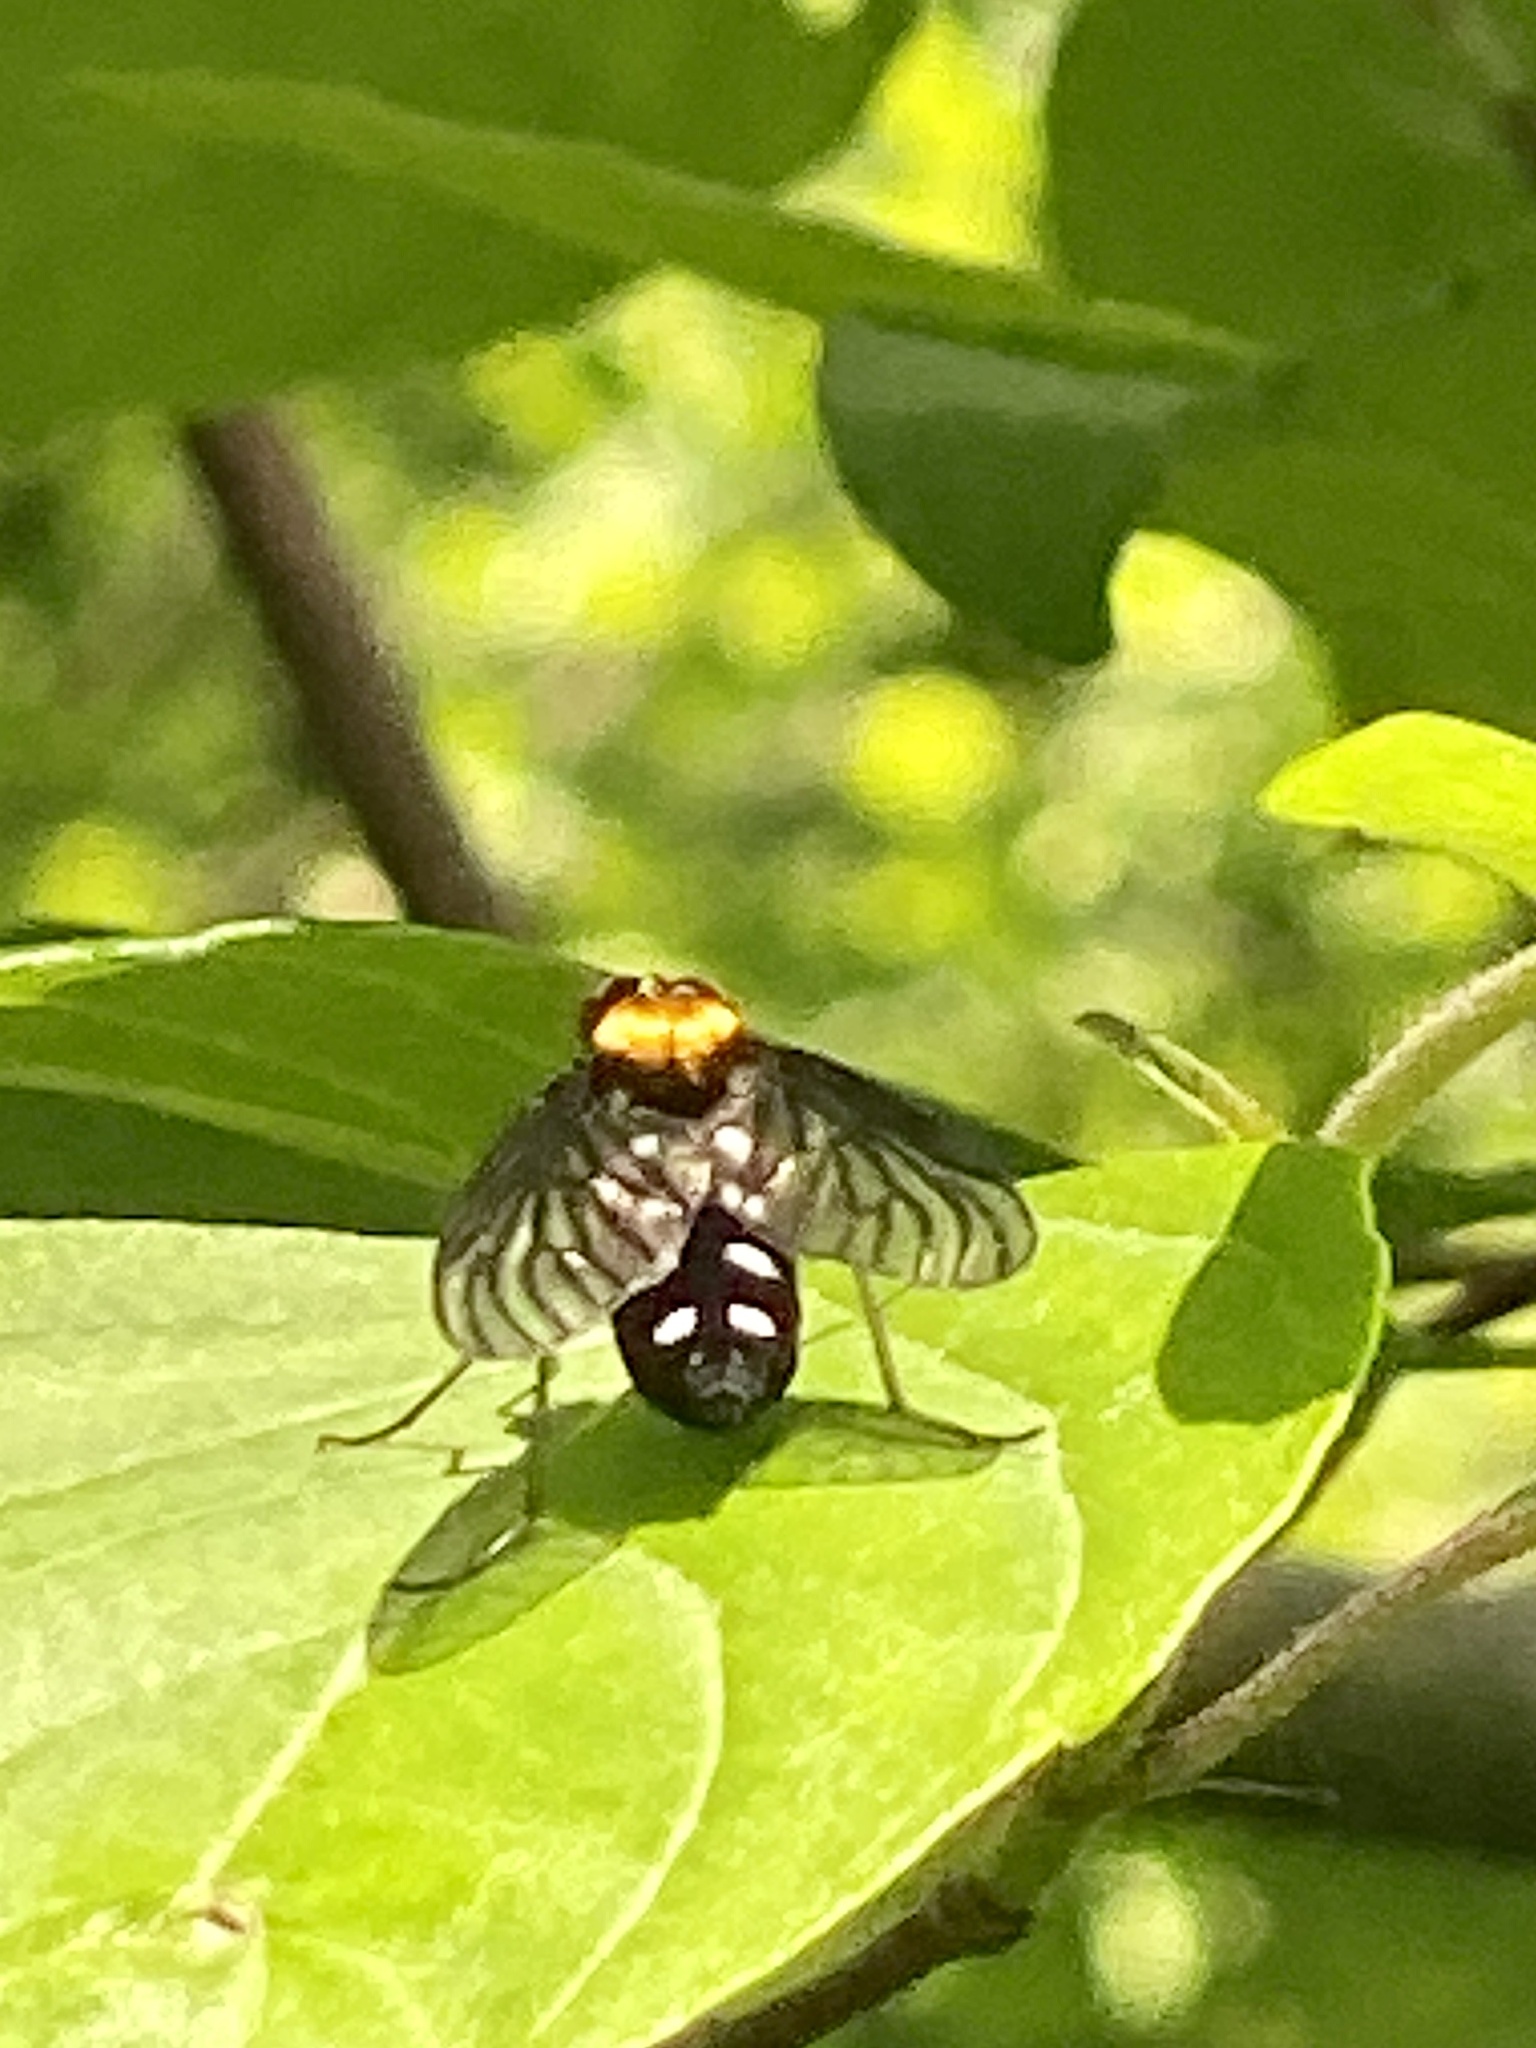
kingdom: Animalia
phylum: Arthropoda
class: Insecta
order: Diptera
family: Rhagionidae
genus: Chrysopilus
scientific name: Chrysopilus thoracicus
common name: Golden-backed snipe fly
